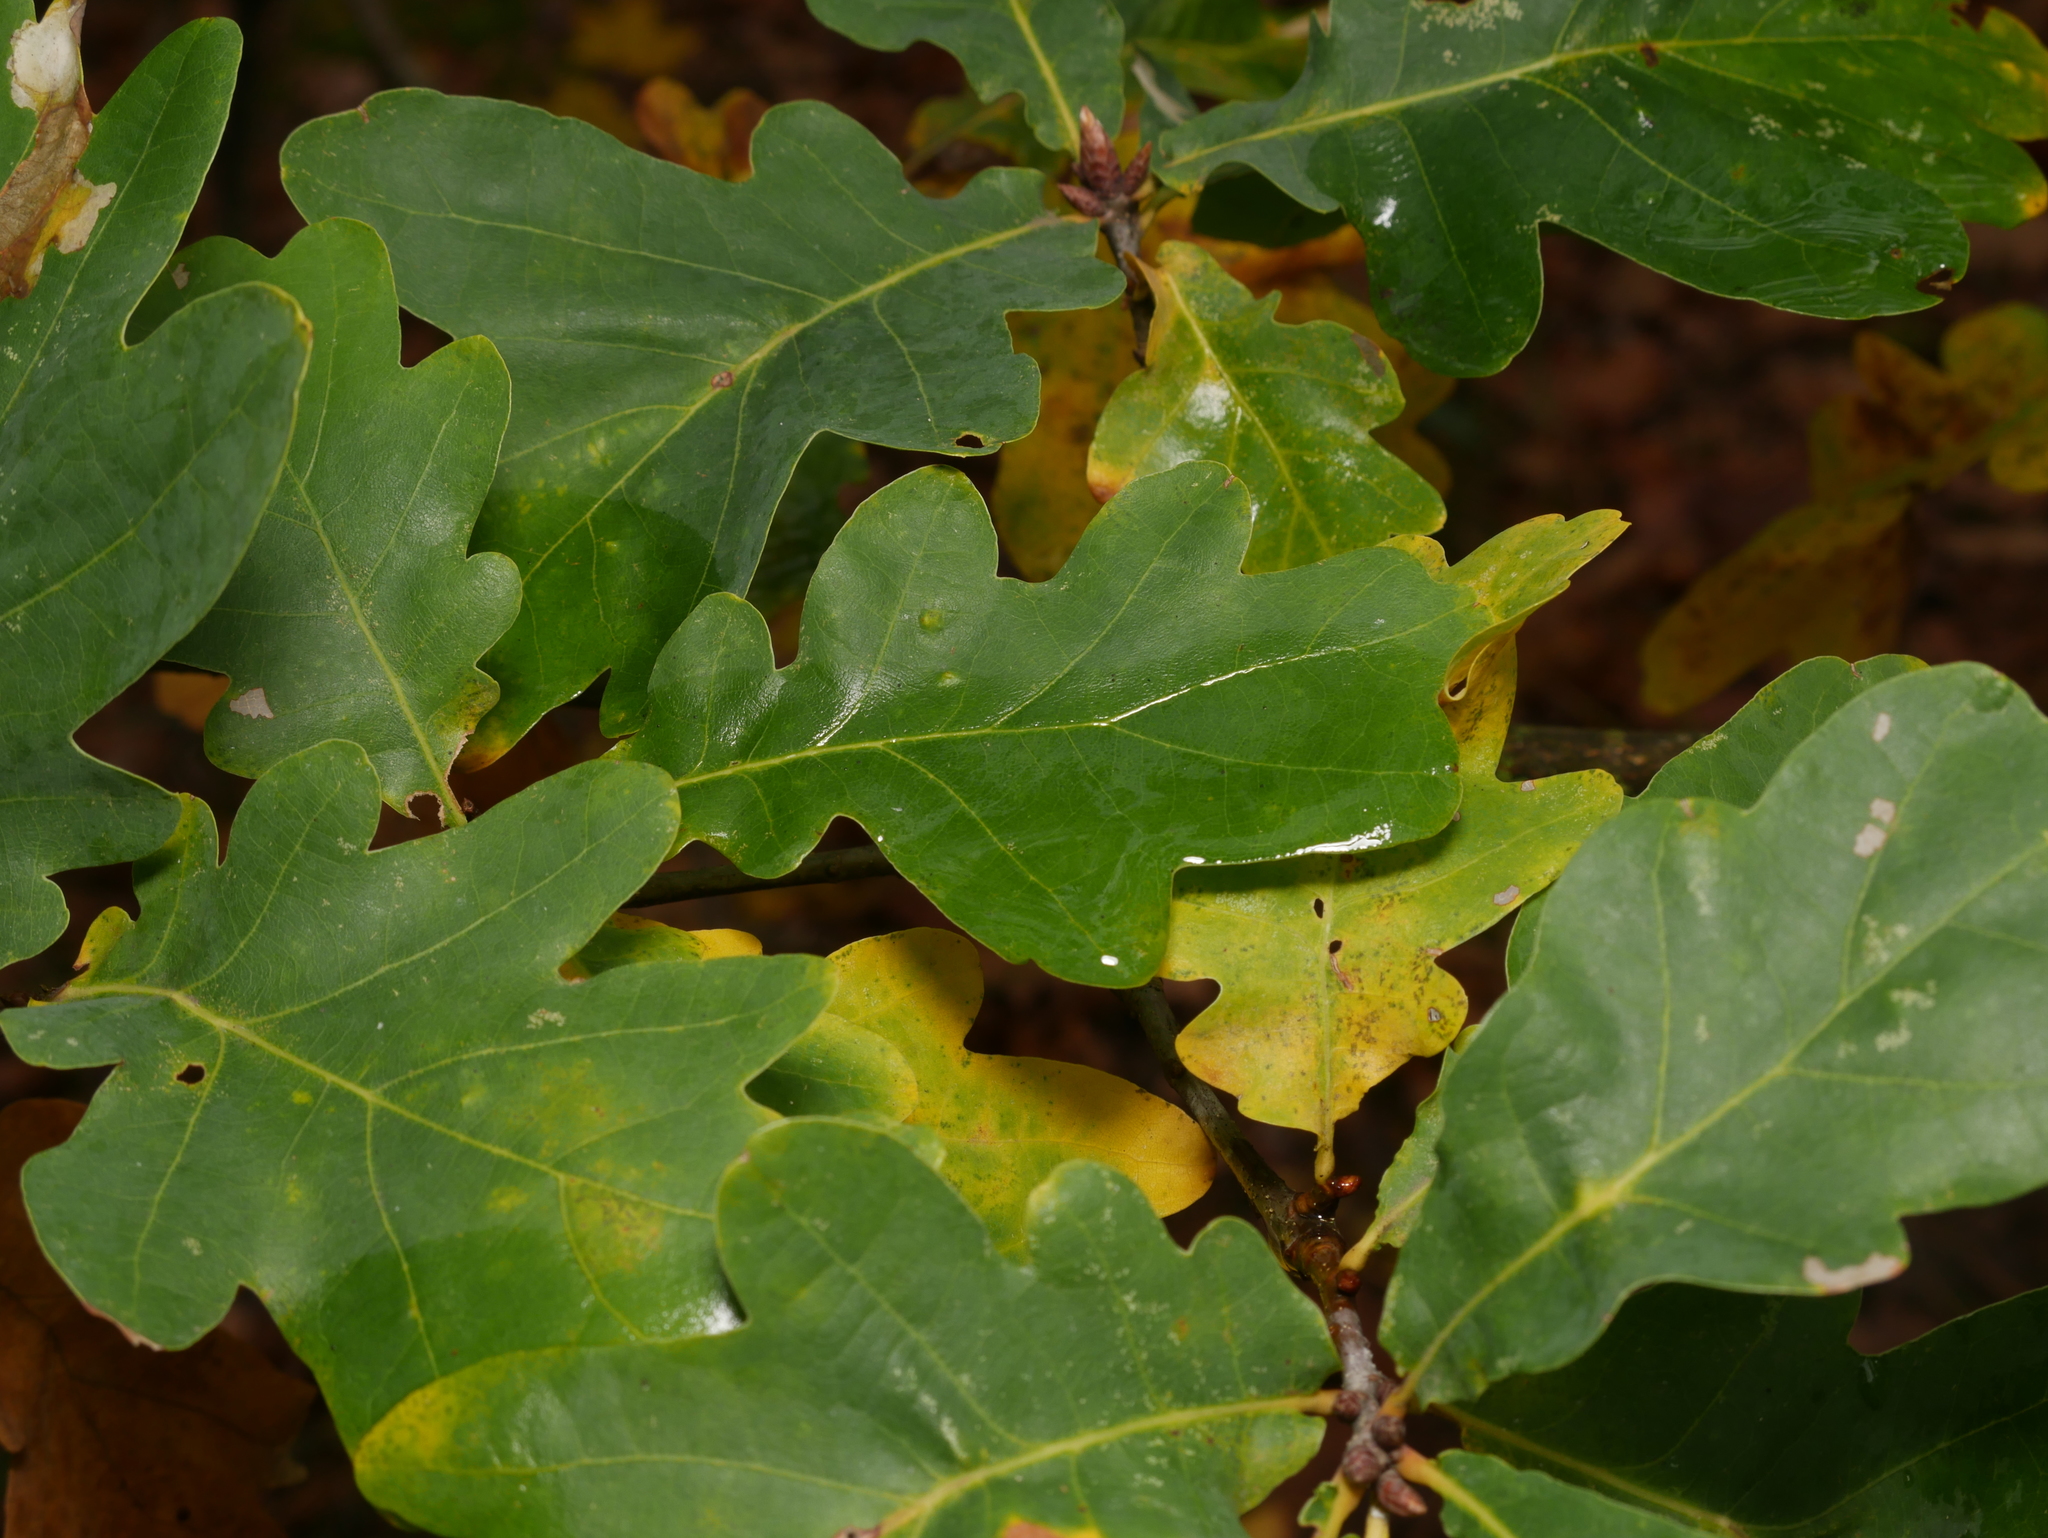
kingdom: Plantae
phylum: Tracheophyta
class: Magnoliopsida
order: Fagales
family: Fagaceae
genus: Quercus
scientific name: Quercus robur
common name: Pedunculate oak
